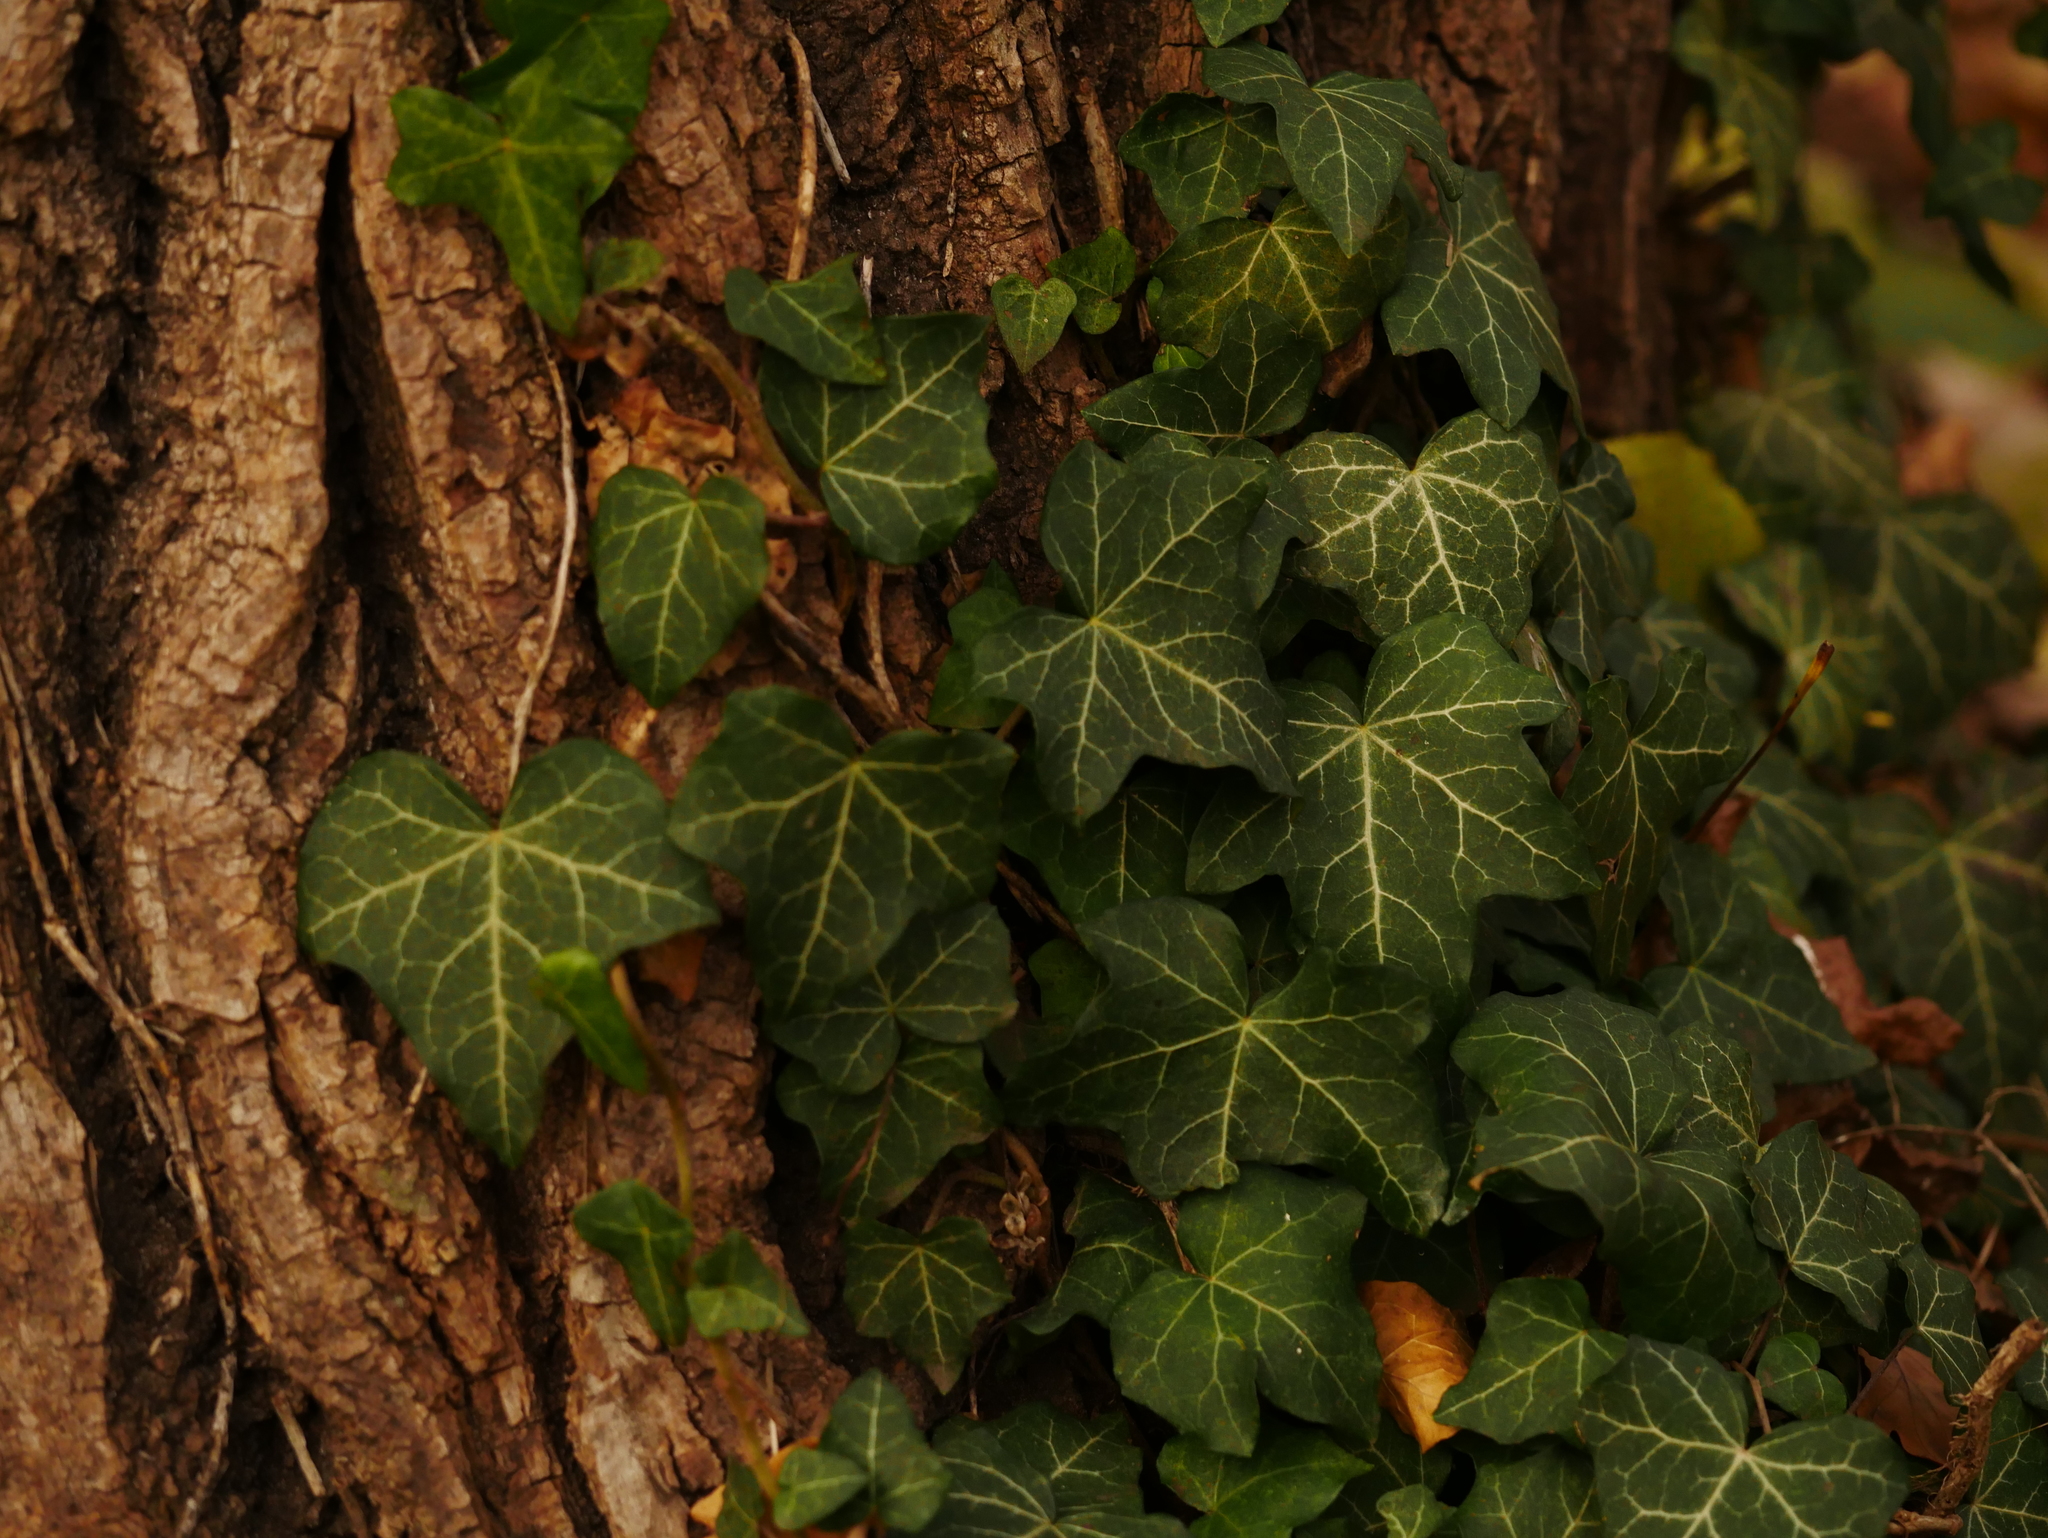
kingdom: Plantae
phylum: Tracheophyta
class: Magnoliopsida
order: Apiales
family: Araliaceae
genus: Hedera
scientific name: Hedera helix
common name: Ivy
